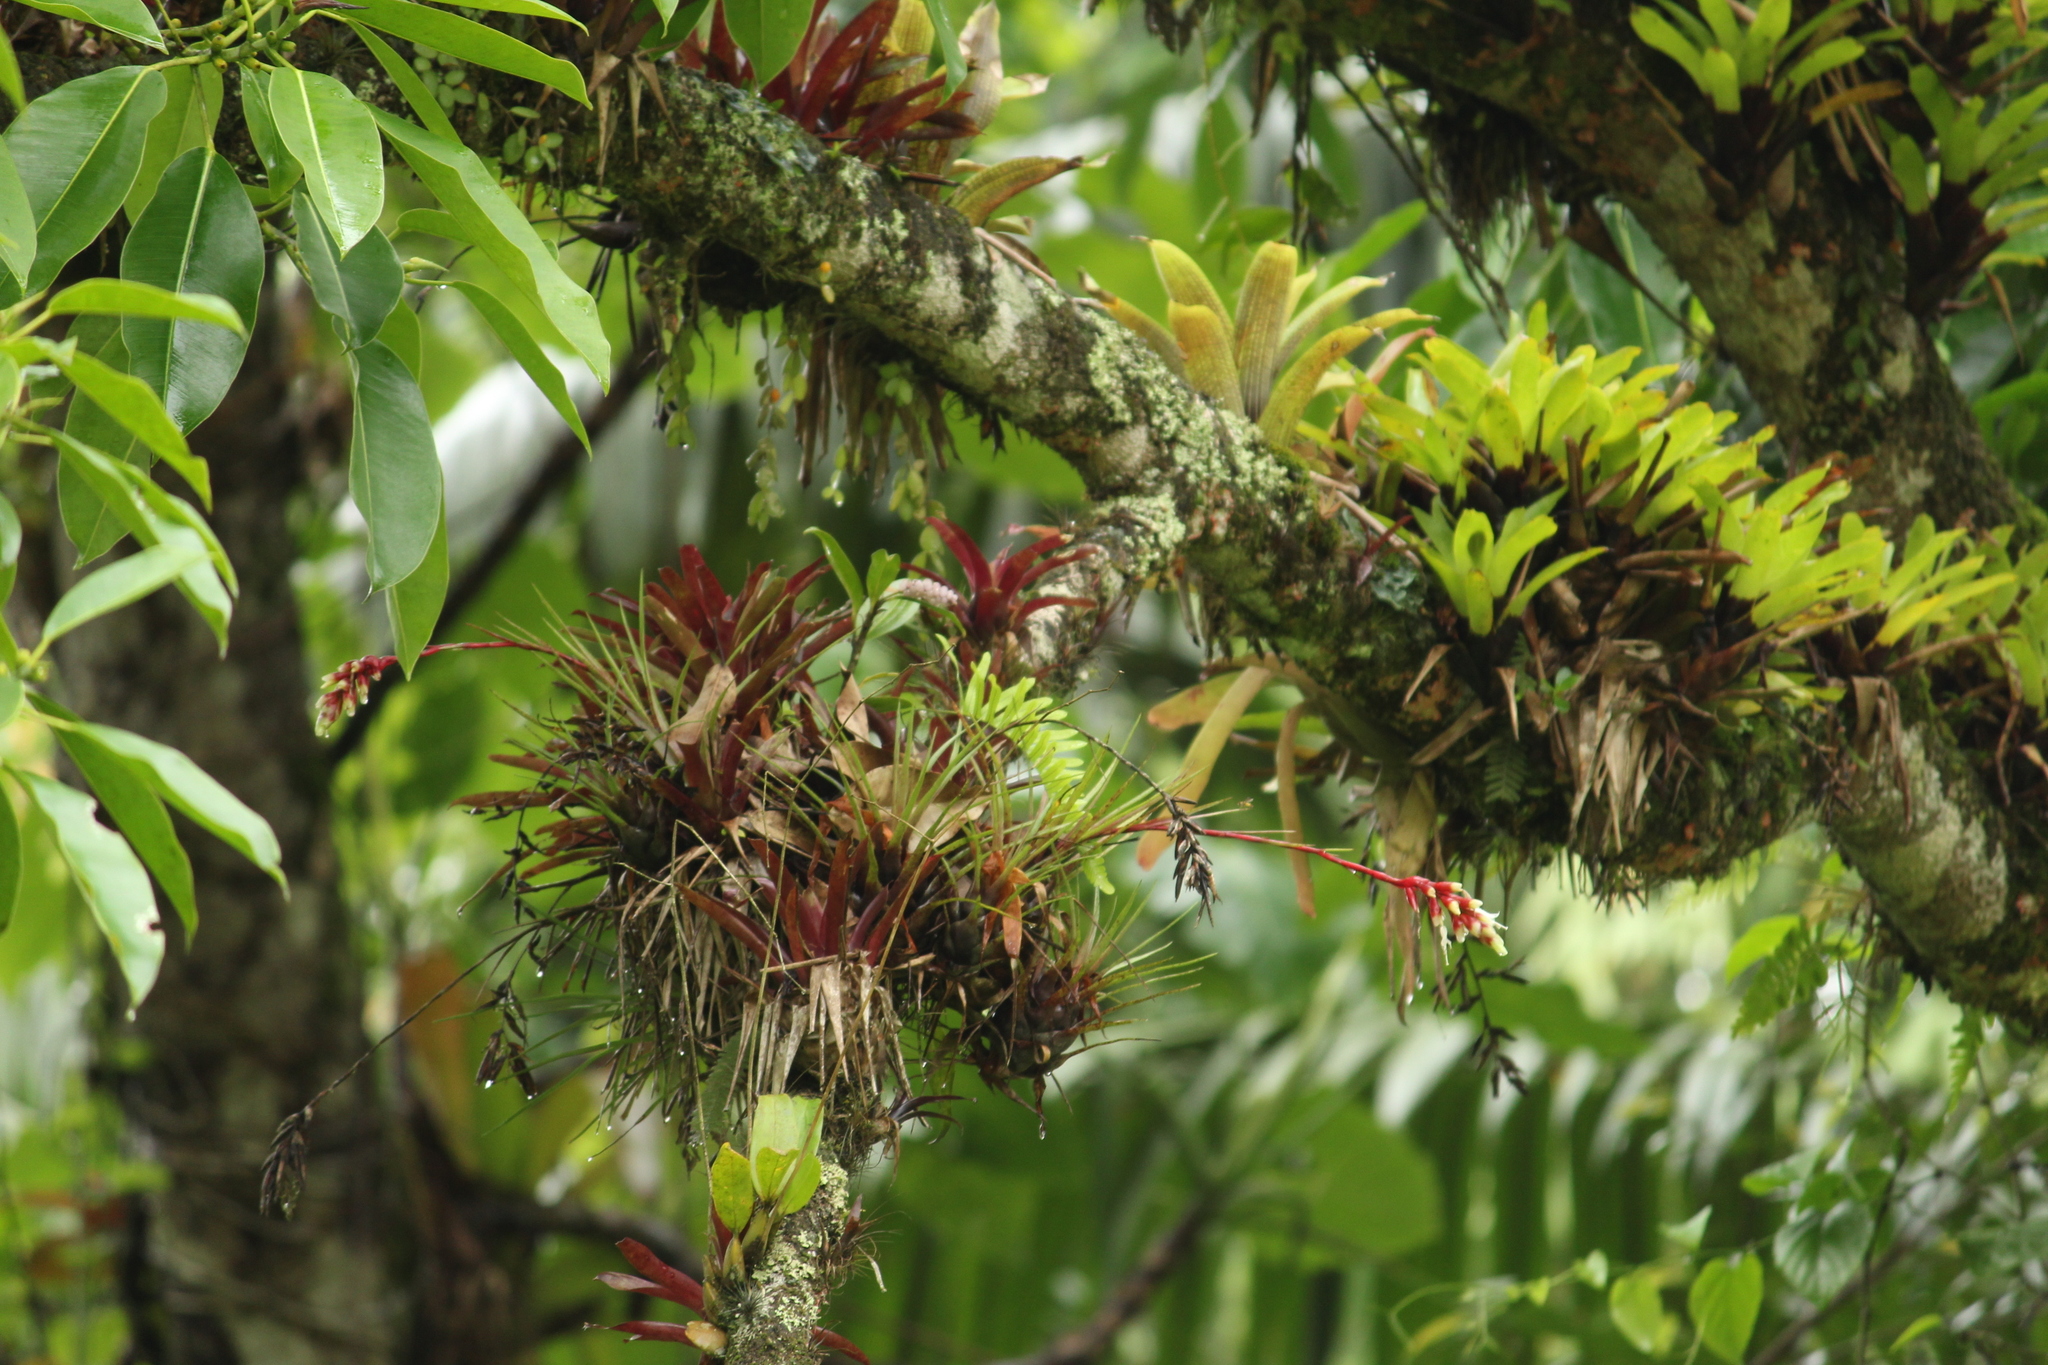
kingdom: Plantae
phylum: Tracheophyta
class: Liliopsida
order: Poales
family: Bromeliaceae
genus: Vriesea
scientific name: Vriesea flammea
